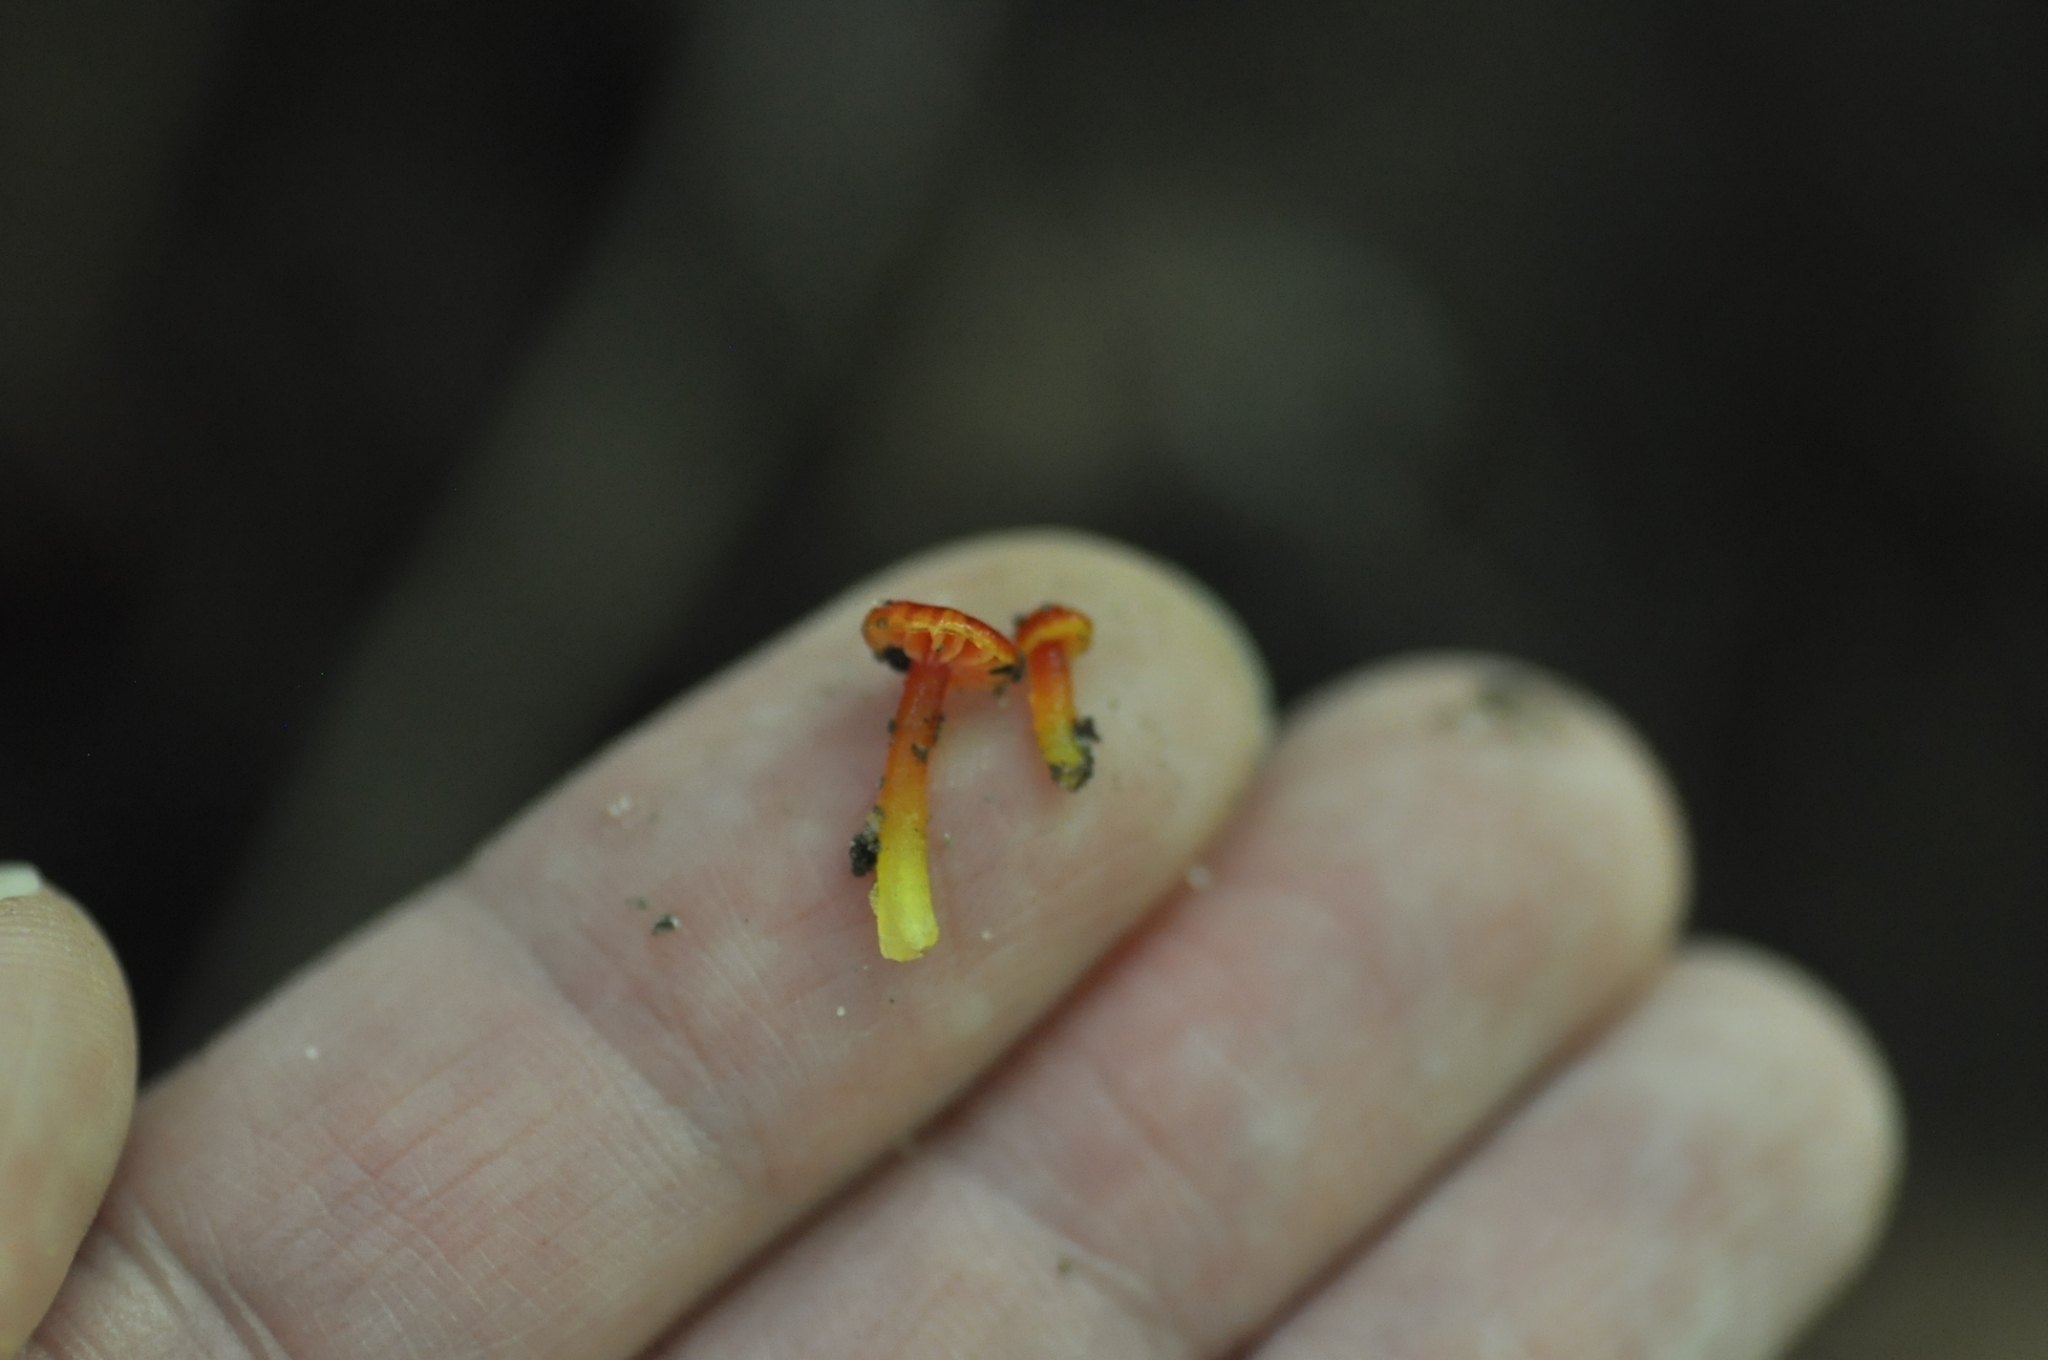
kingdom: Fungi
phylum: Basidiomycota
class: Agaricomycetes
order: Agaricales
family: Hygrophoraceae
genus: Hygrocybe
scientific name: Hygrocybe glutinipes
